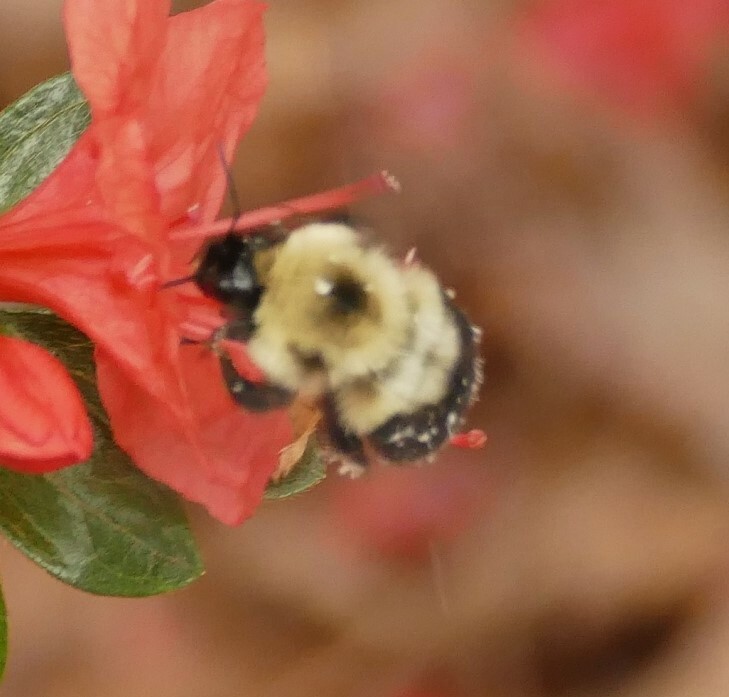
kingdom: Animalia
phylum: Arthropoda
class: Insecta
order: Hymenoptera
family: Apidae
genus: Bombus
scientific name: Bombus bimaculatus
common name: Two-spotted bumble bee
